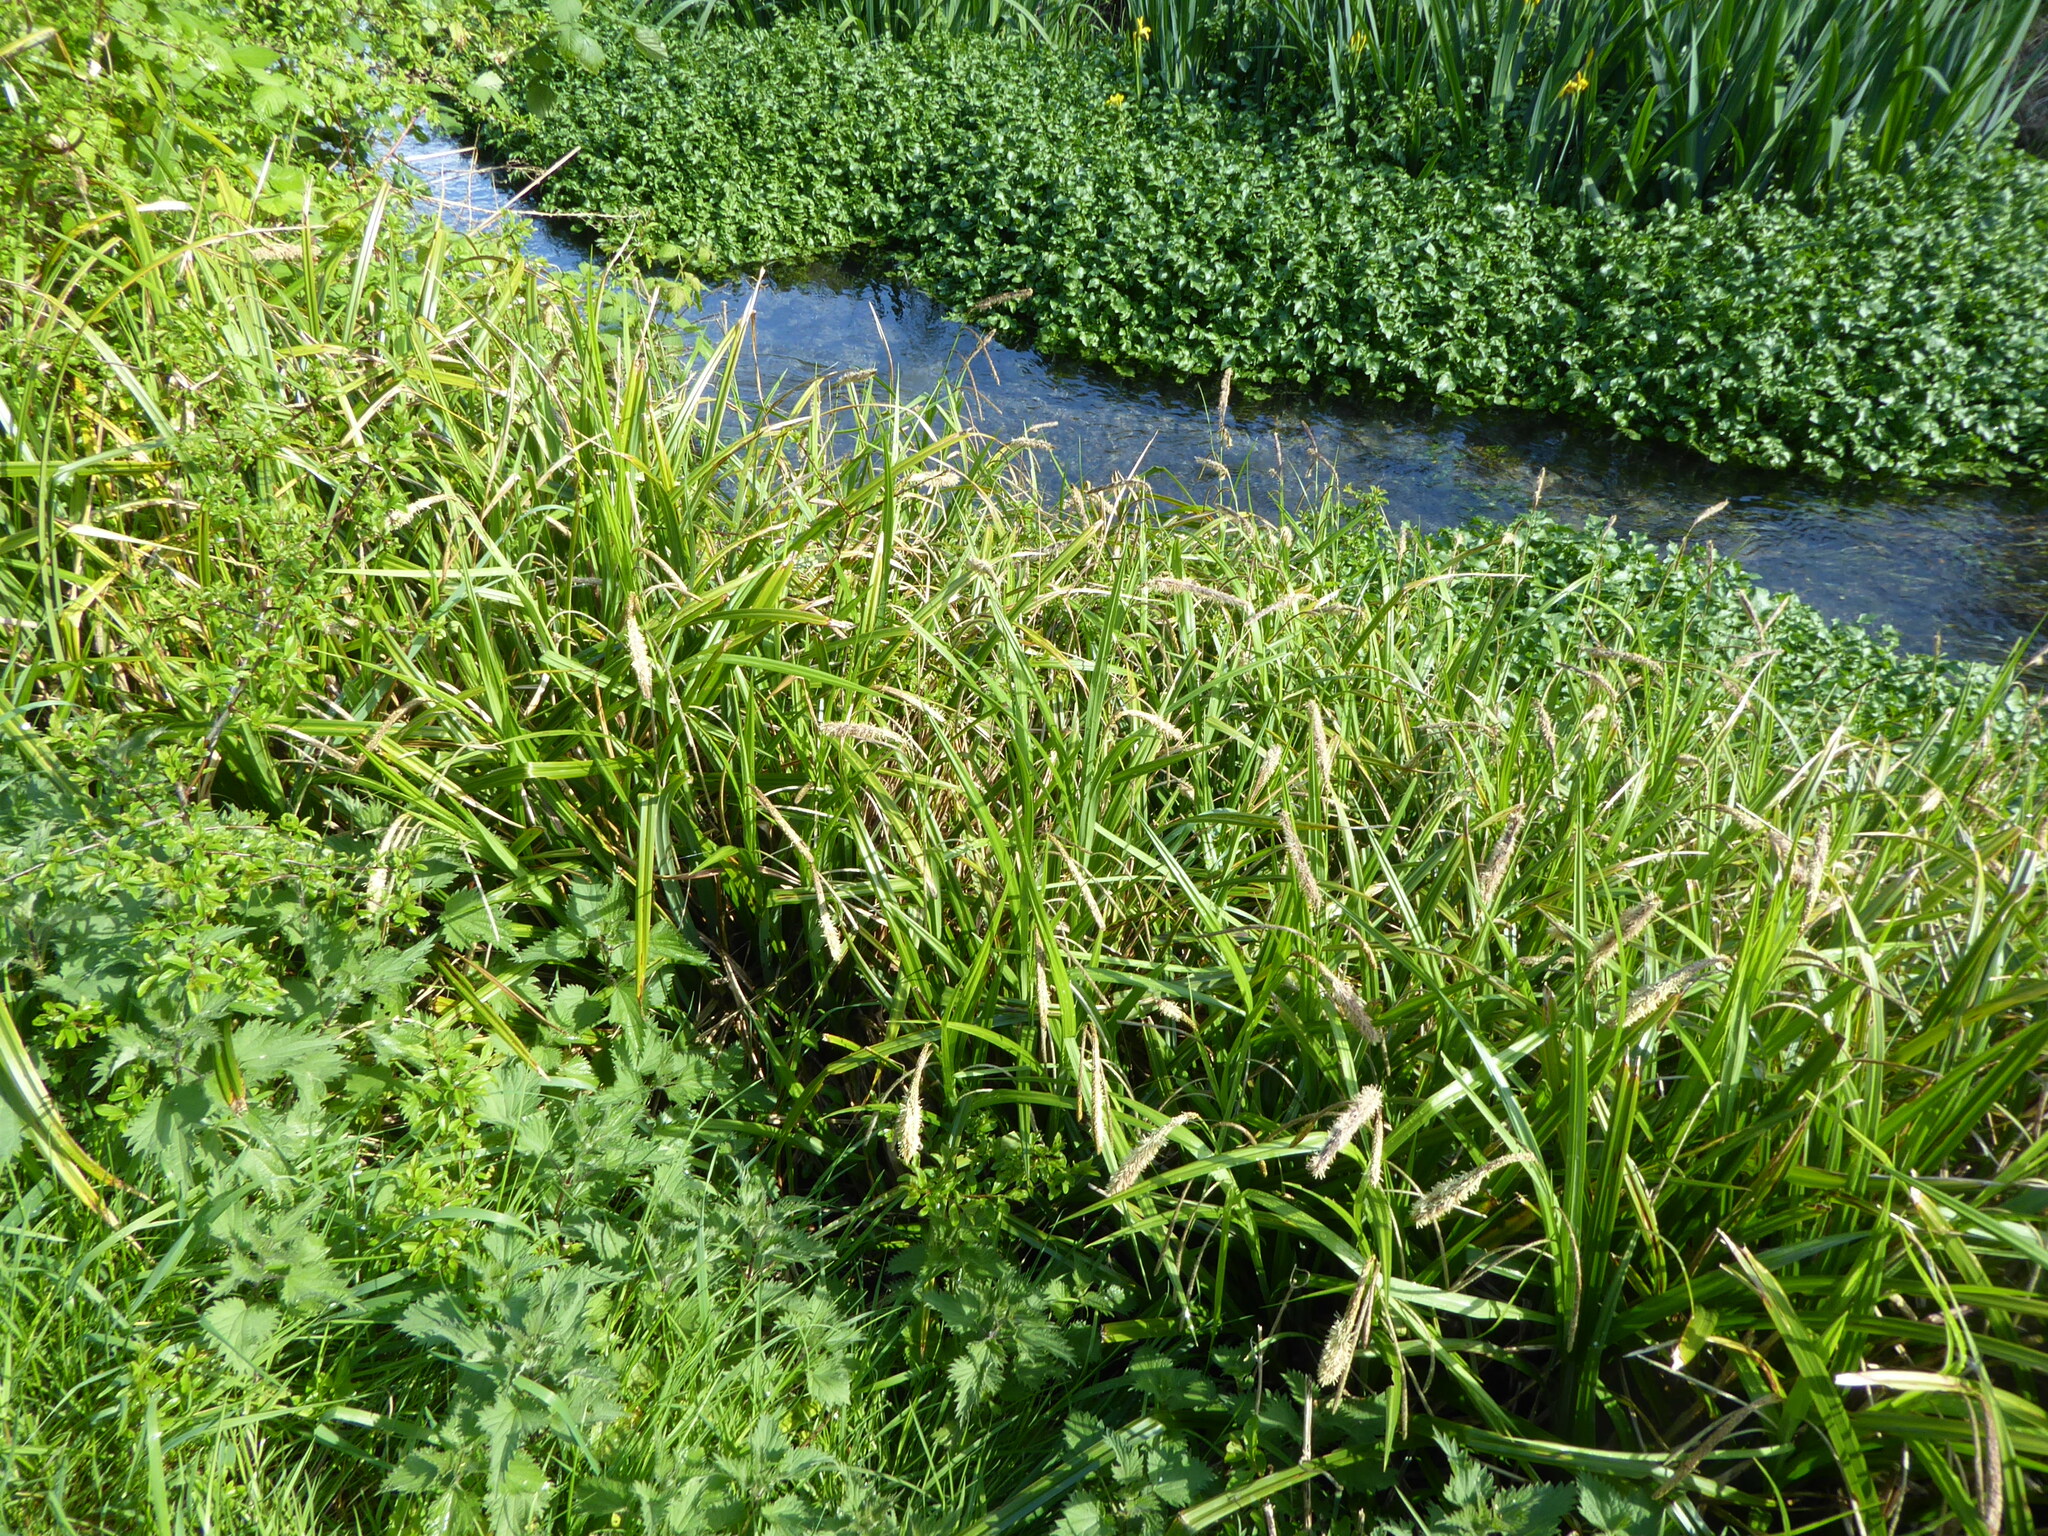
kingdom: Plantae
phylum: Tracheophyta
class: Liliopsida
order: Poales
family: Cyperaceae
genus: Carex
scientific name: Carex pendula
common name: Pendulous sedge
